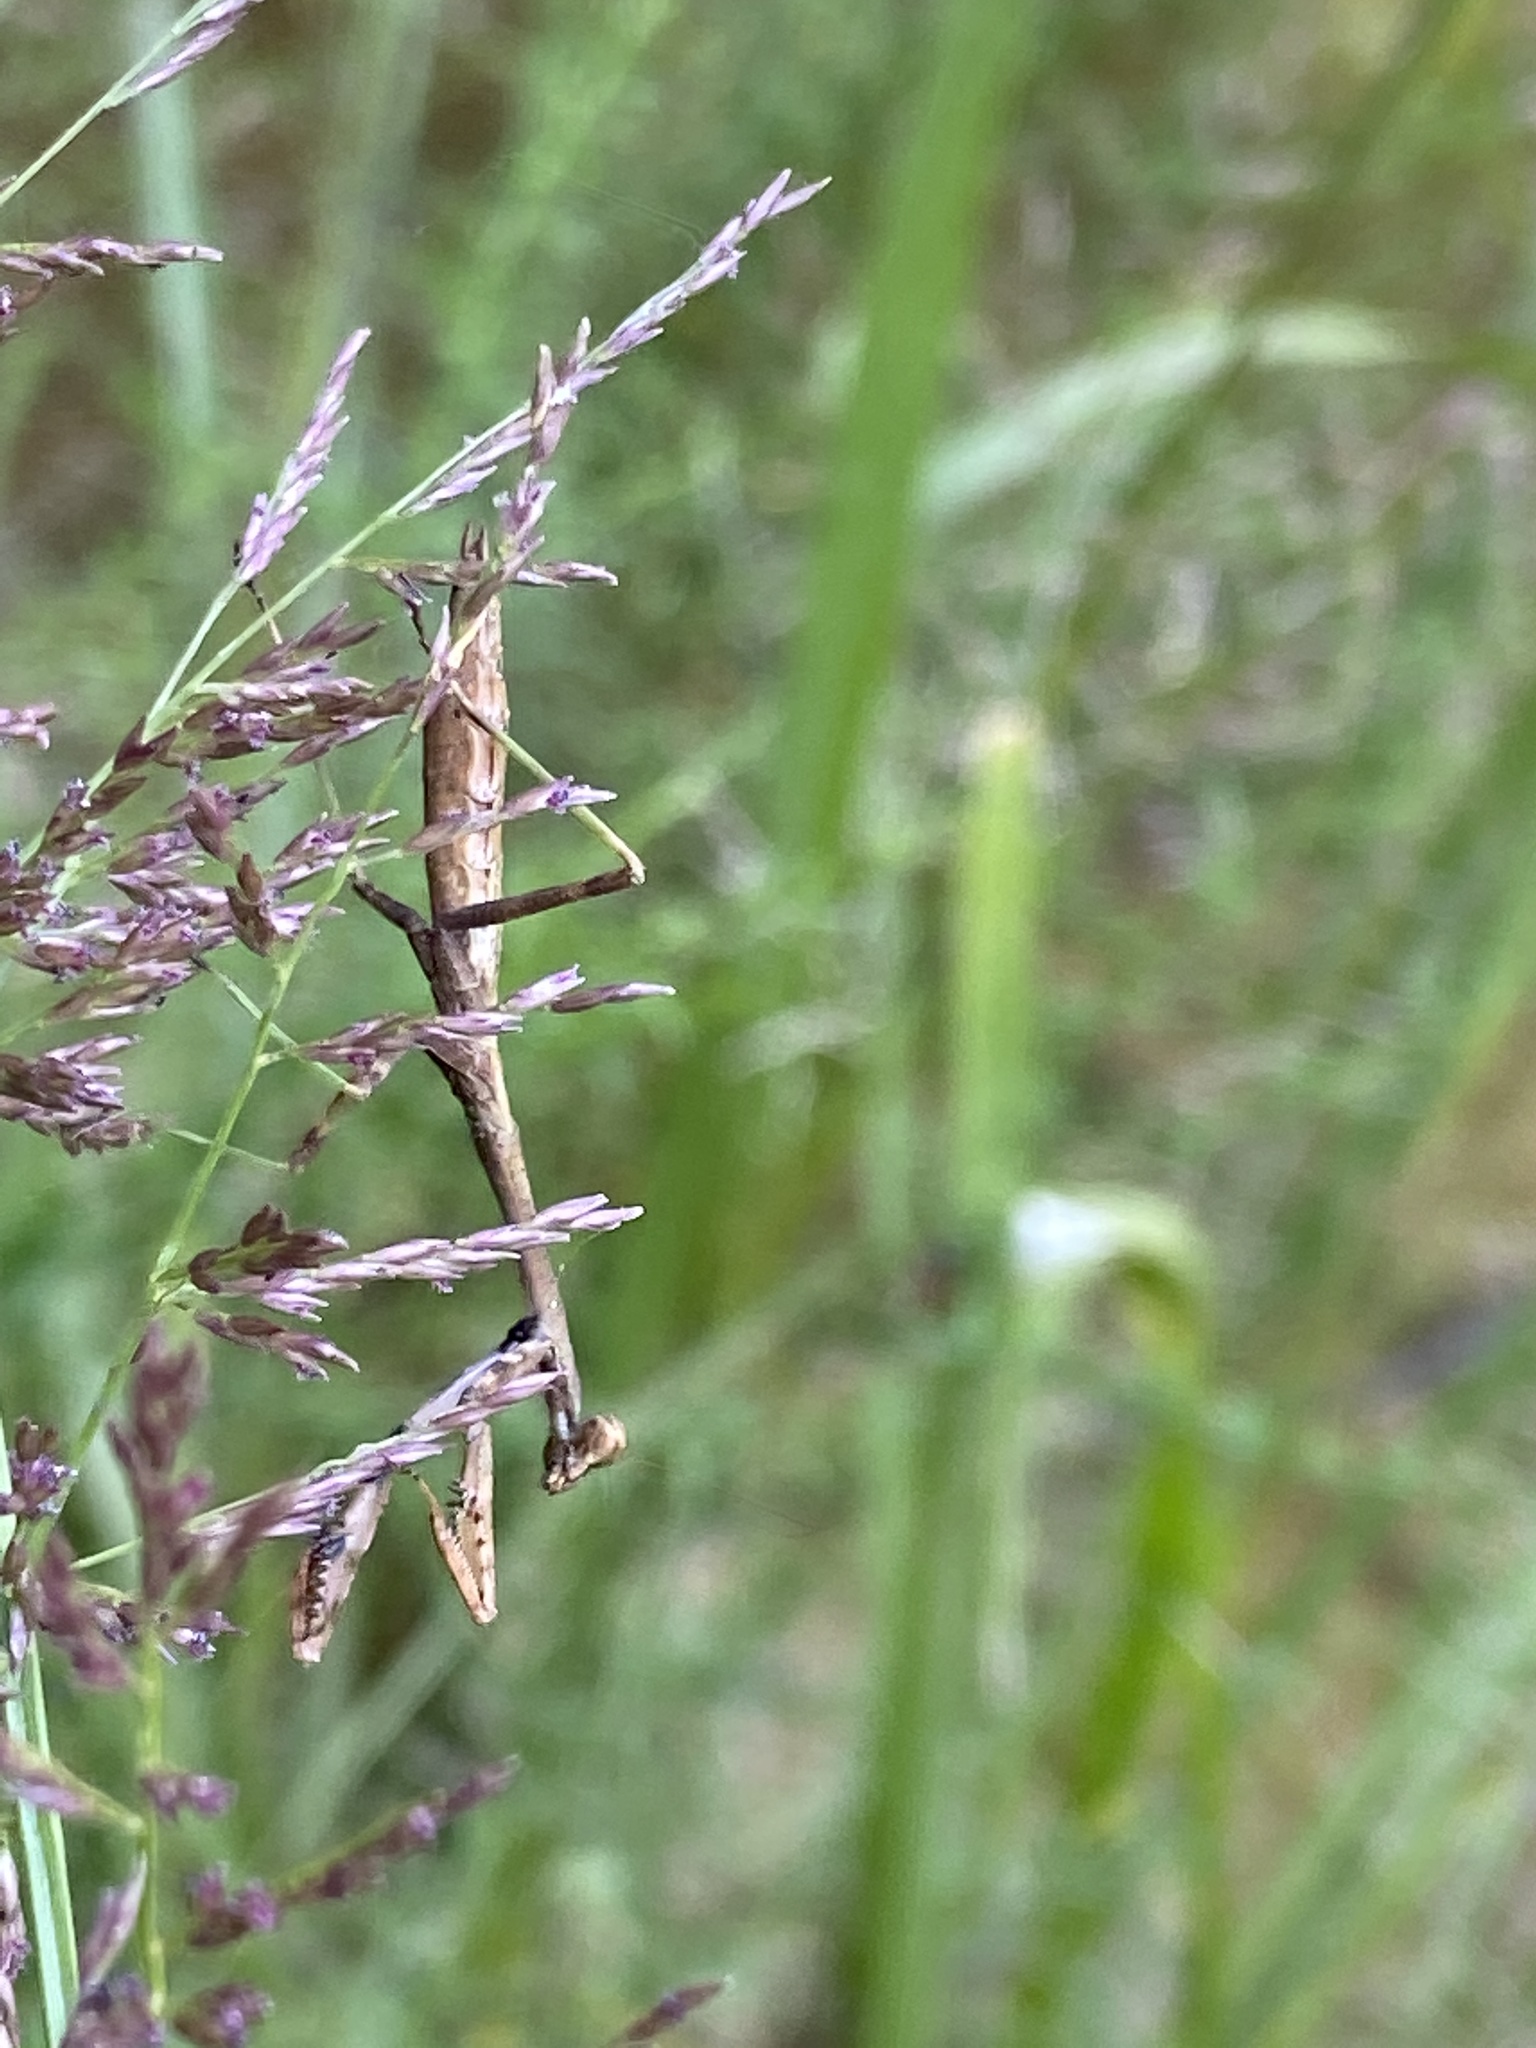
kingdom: Animalia
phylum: Arthropoda
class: Insecta
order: Mantodea
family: Mantidae
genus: Stagmomantis
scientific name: Stagmomantis carolina
